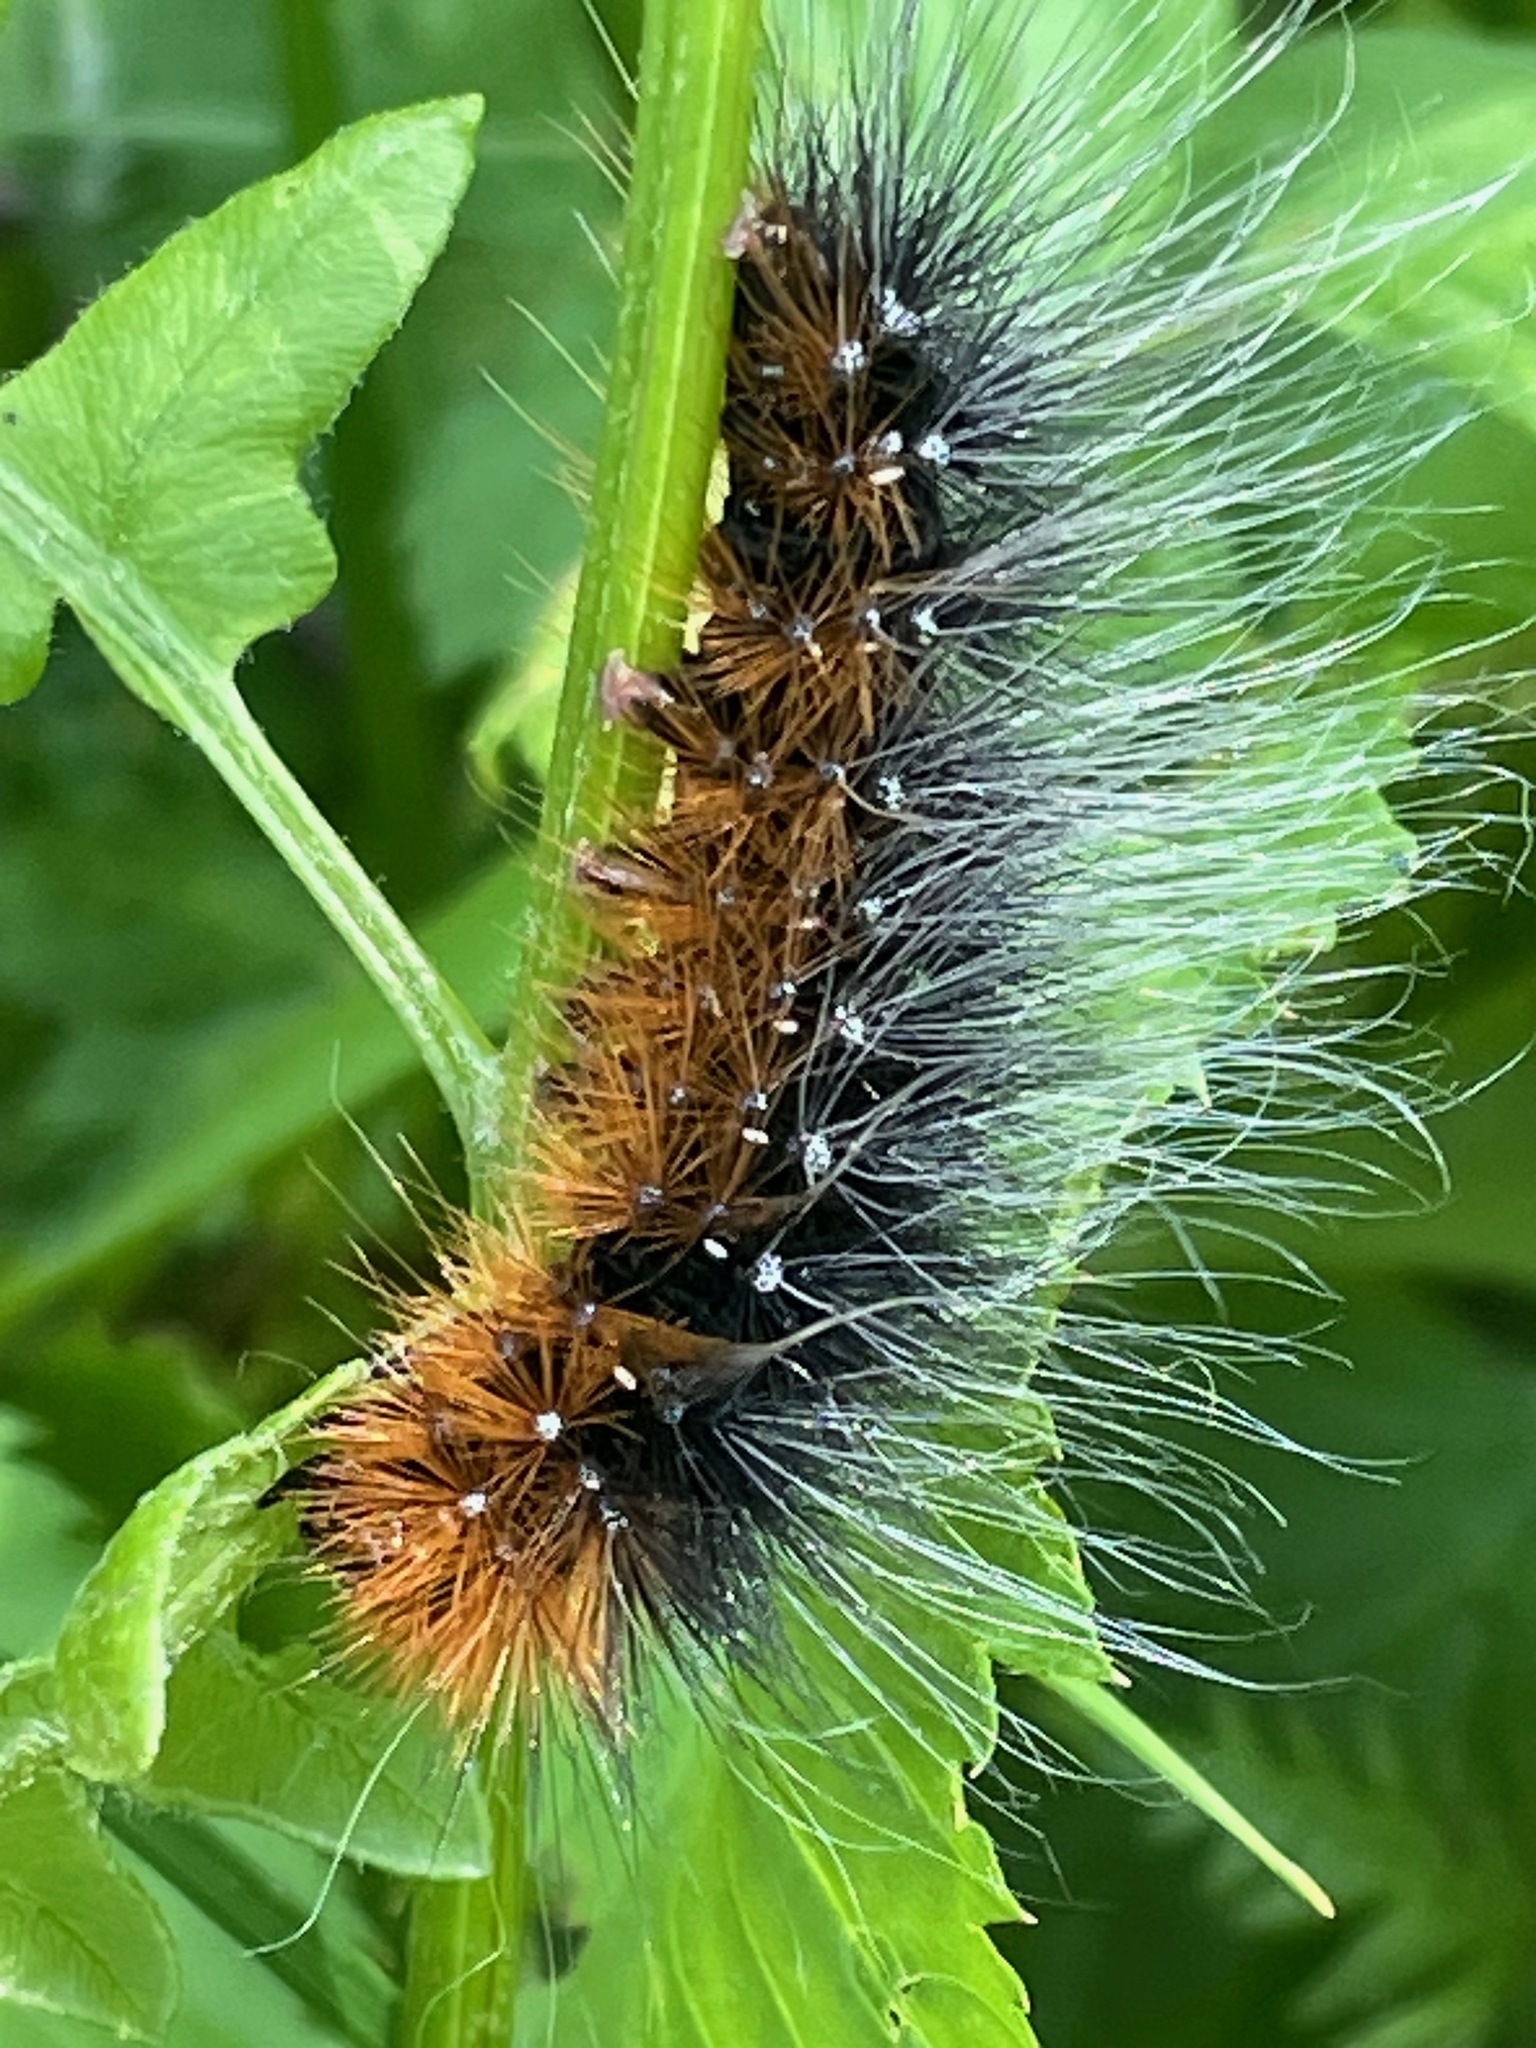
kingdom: Animalia
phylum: Arthropoda
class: Insecta
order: Lepidoptera
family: Erebidae
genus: Arctia
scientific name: Arctia caja
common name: Garden tiger
